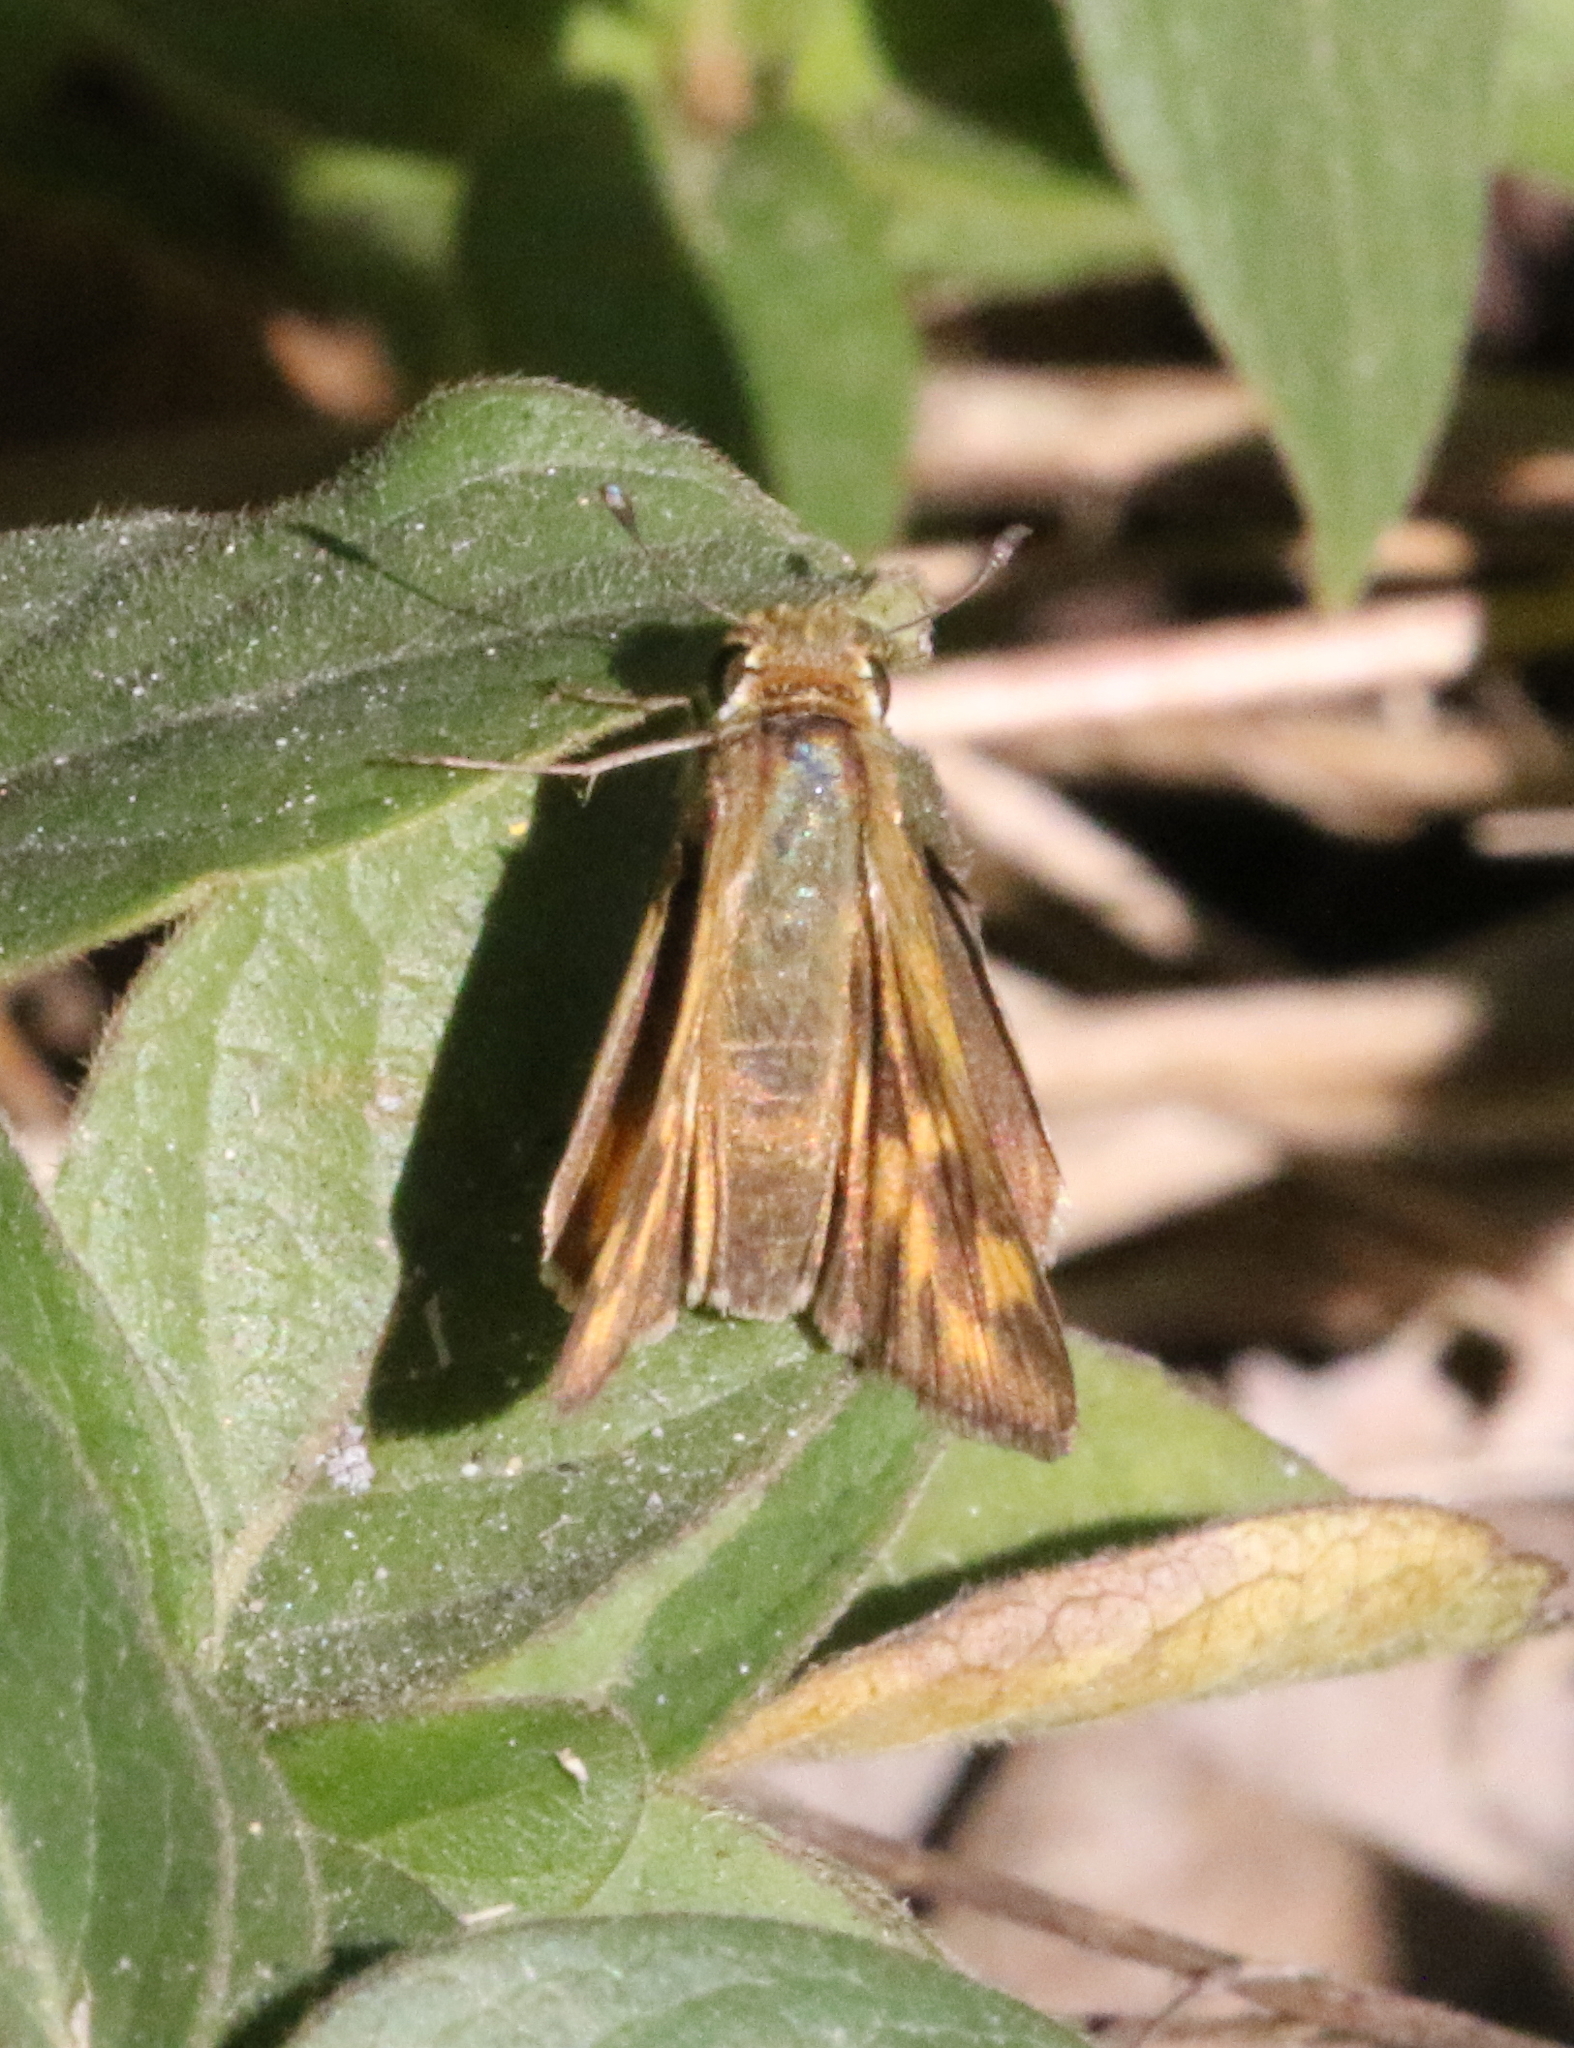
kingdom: Animalia
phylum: Arthropoda
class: Insecta
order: Lepidoptera
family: Hesperiidae
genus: Hylephila
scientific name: Hylephila phyleus
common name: Fiery skipper
